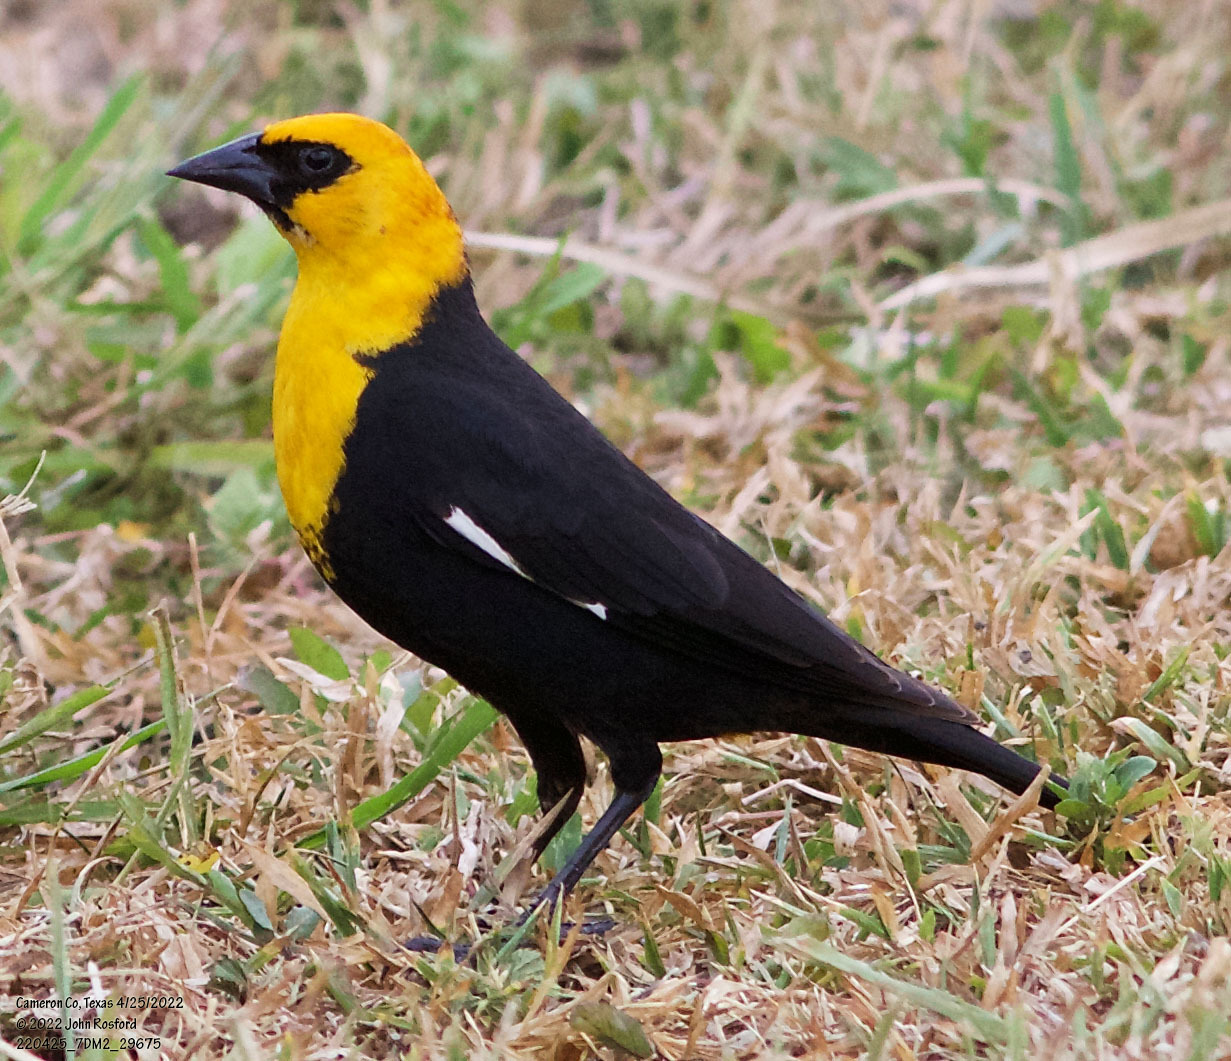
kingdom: Animalia
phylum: Chordata
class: Aves
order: Passeriformes
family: Icteridae
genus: Xanthocephalus
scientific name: Xanthocephalus xanthocephalus
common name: Yellow-headed blackbird
